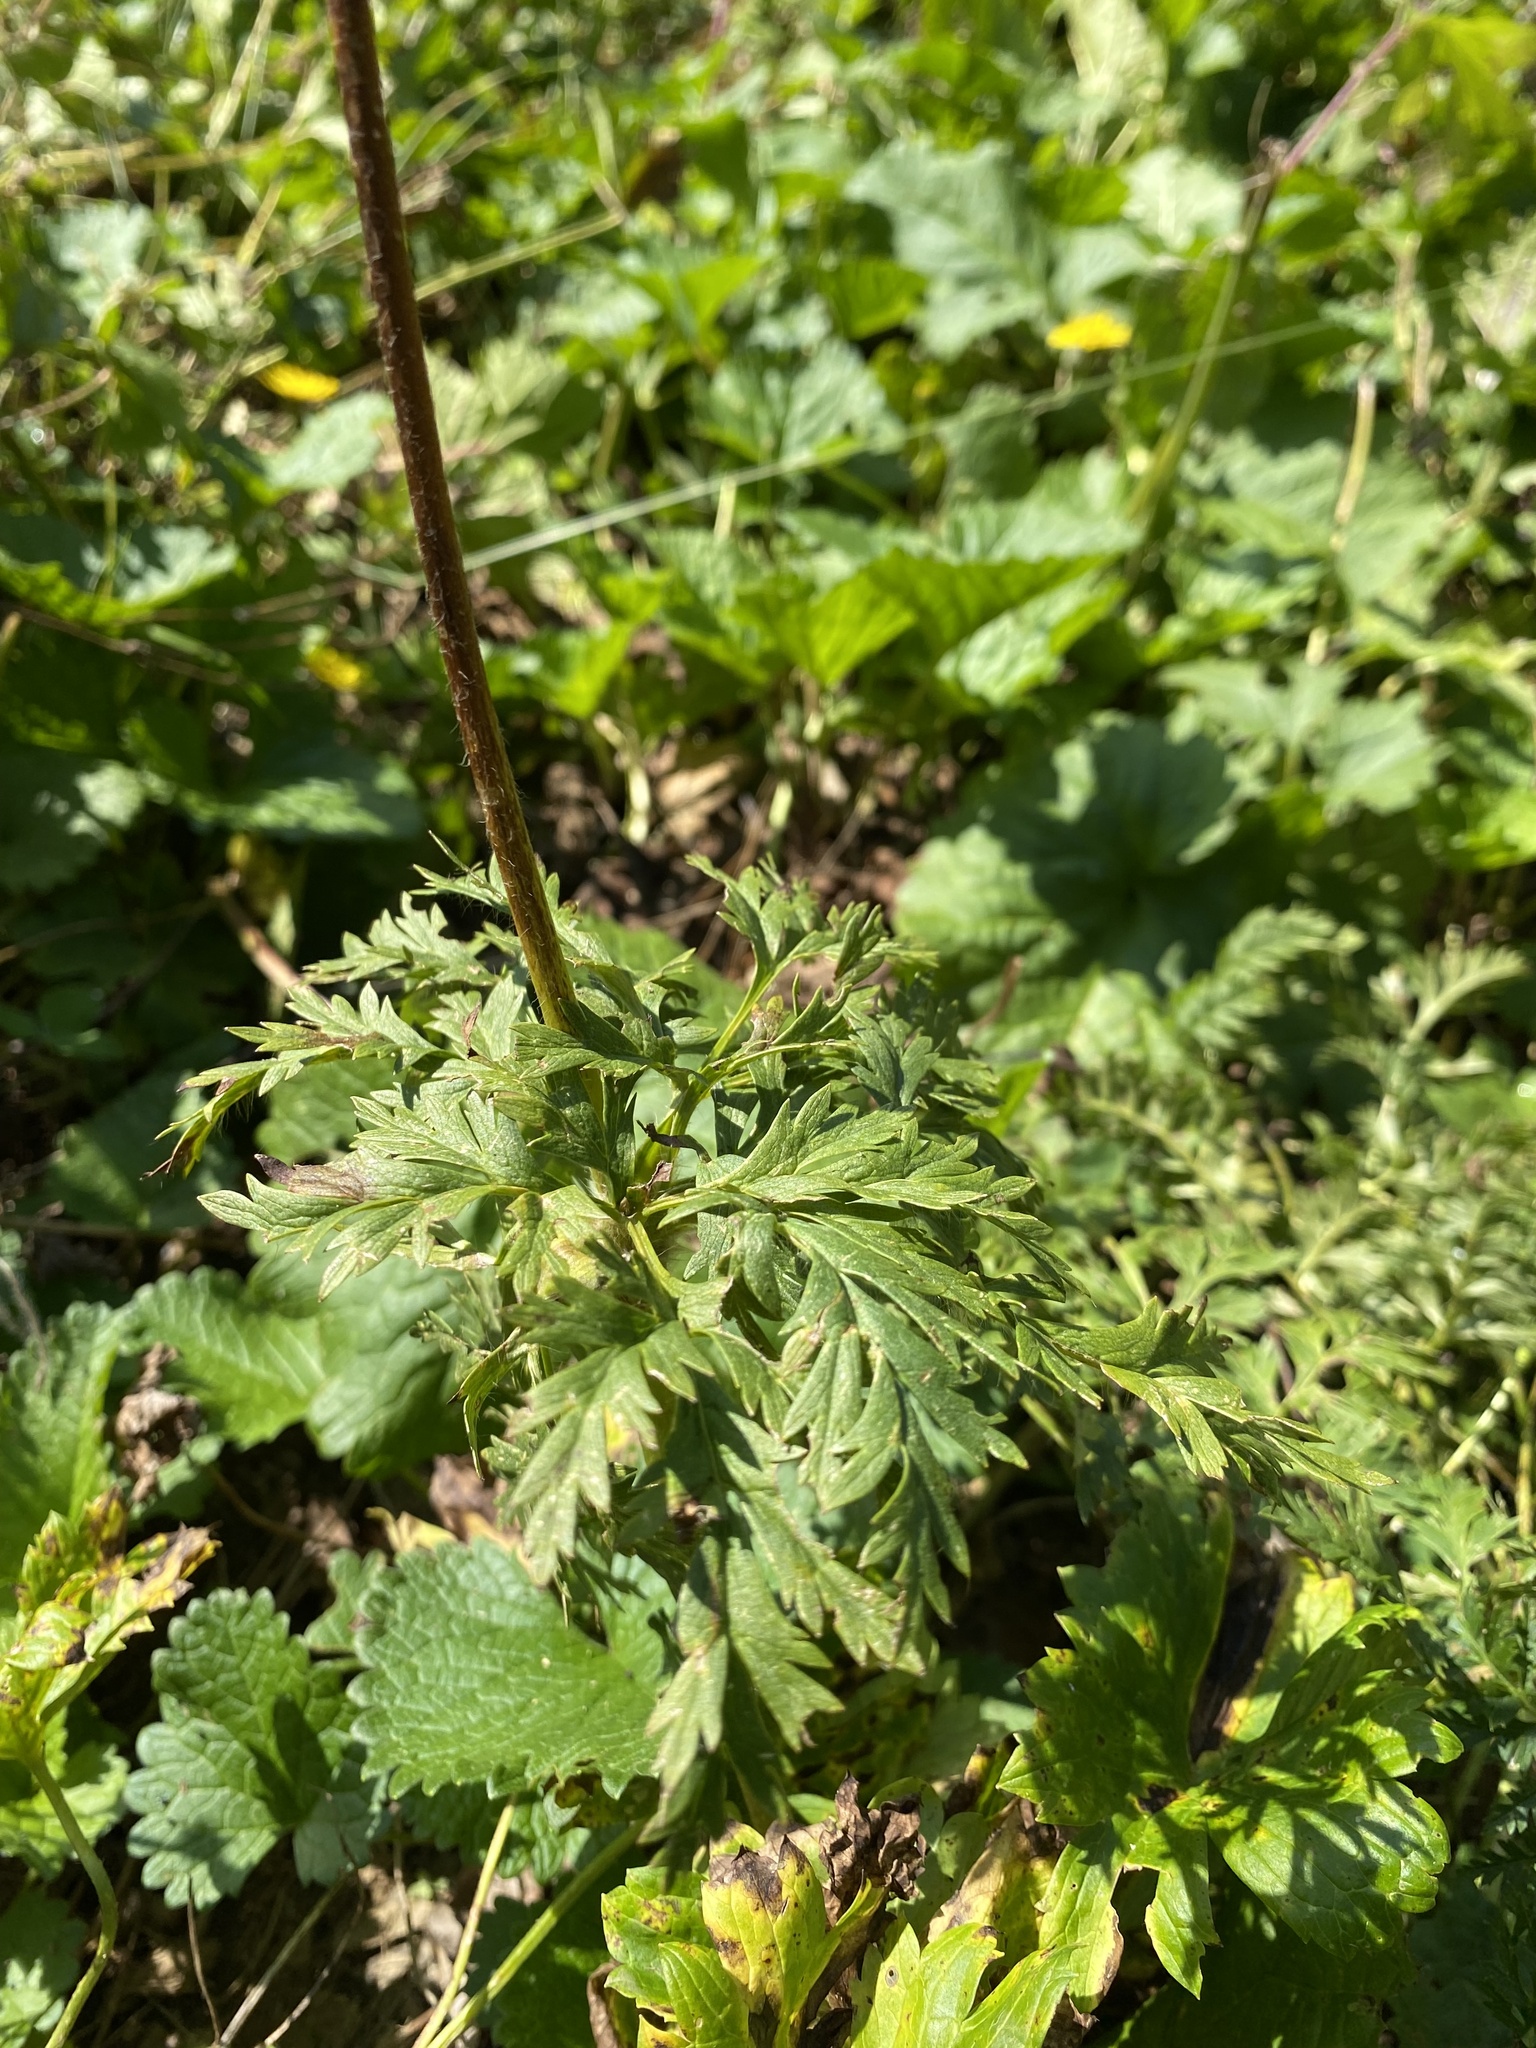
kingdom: Plantae
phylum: Tracheophyta
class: Magnoliopsida
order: Ranunculales
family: Ranunculaceae
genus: Pulsatilla
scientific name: Pulsatilla aurea
